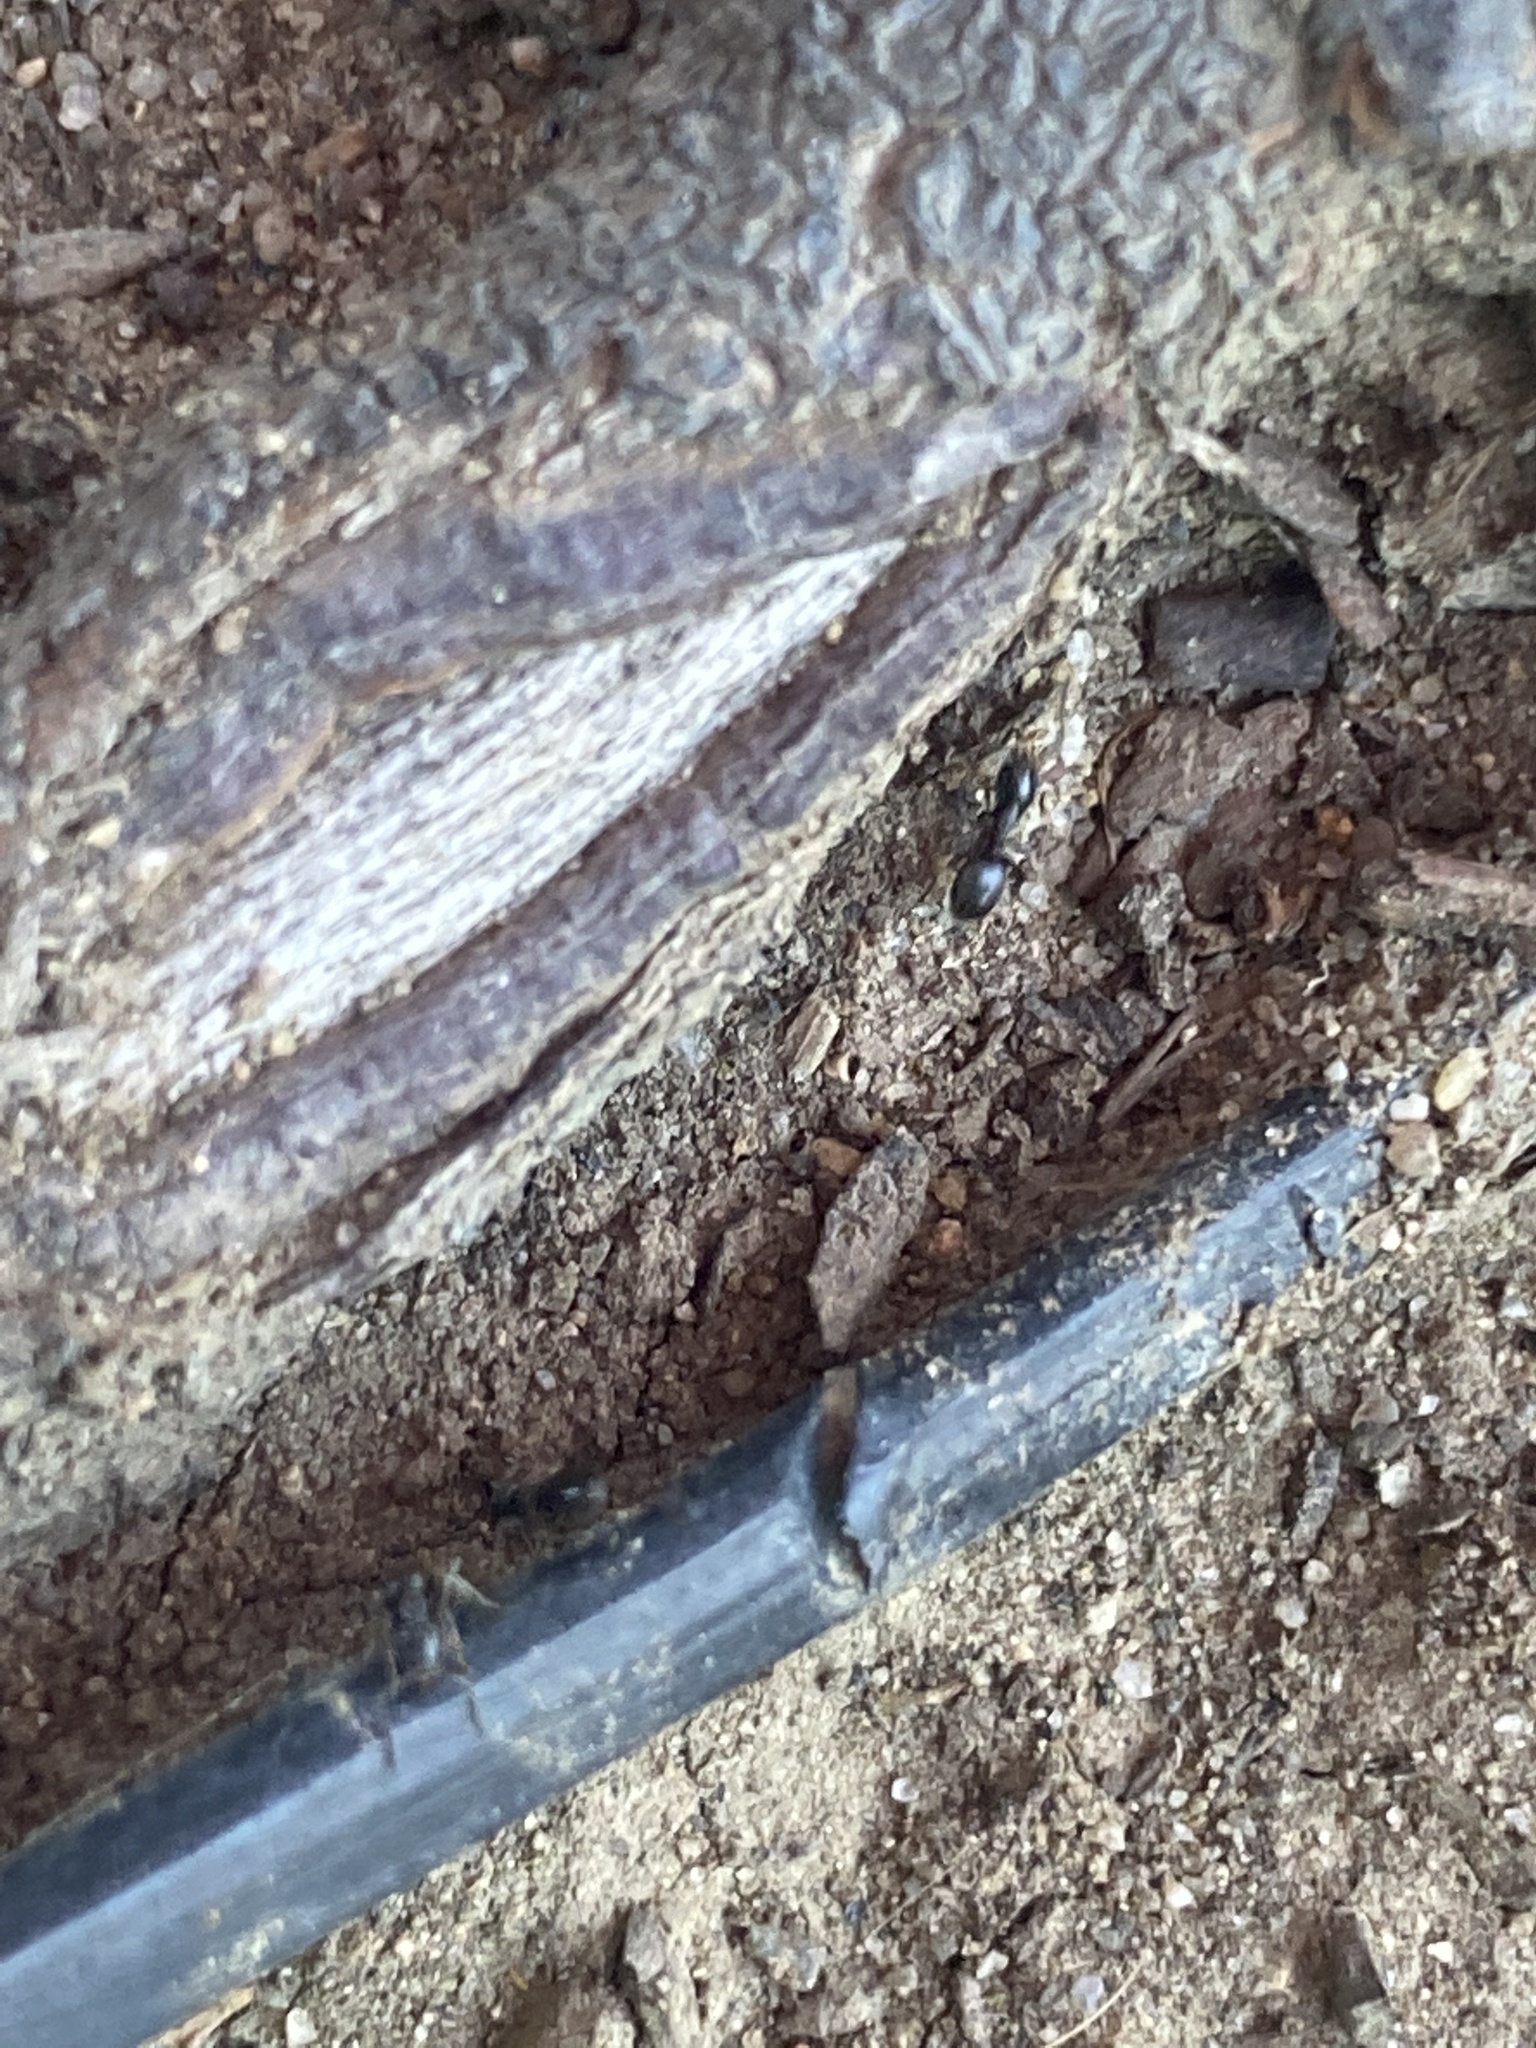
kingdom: Animalia
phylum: Arthropoda
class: Insecta
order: Hymenoptera
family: Formicidae
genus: Tapinoma
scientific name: Tapinoma sessile
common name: Odorous house ant
